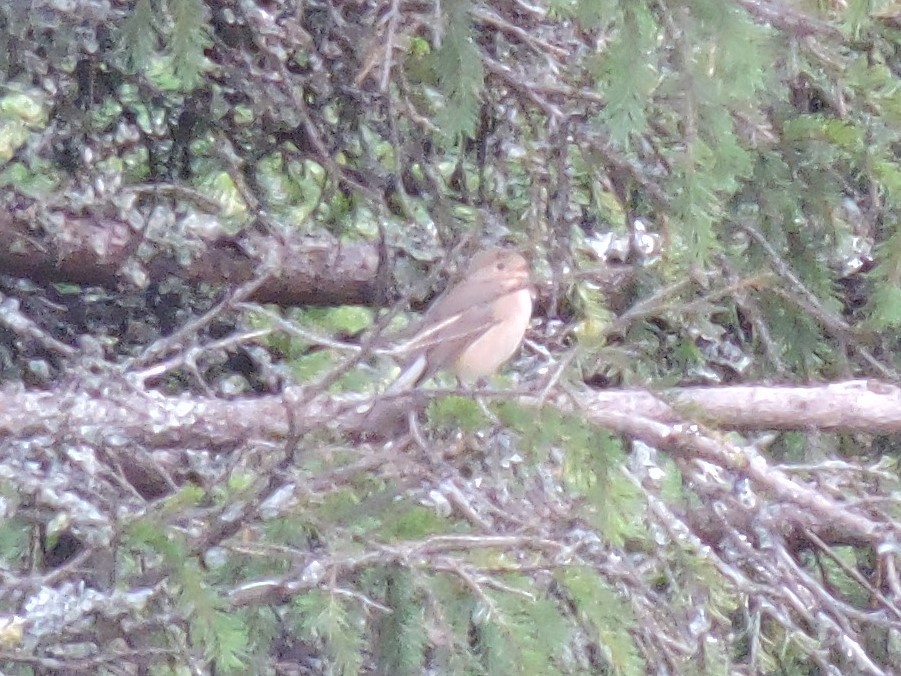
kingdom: Animalia
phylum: Chordata
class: Aves
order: Passeriformes
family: Muscicapidae
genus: Ficedula
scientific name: Ficedula parva
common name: Red-breasted flycatcher
